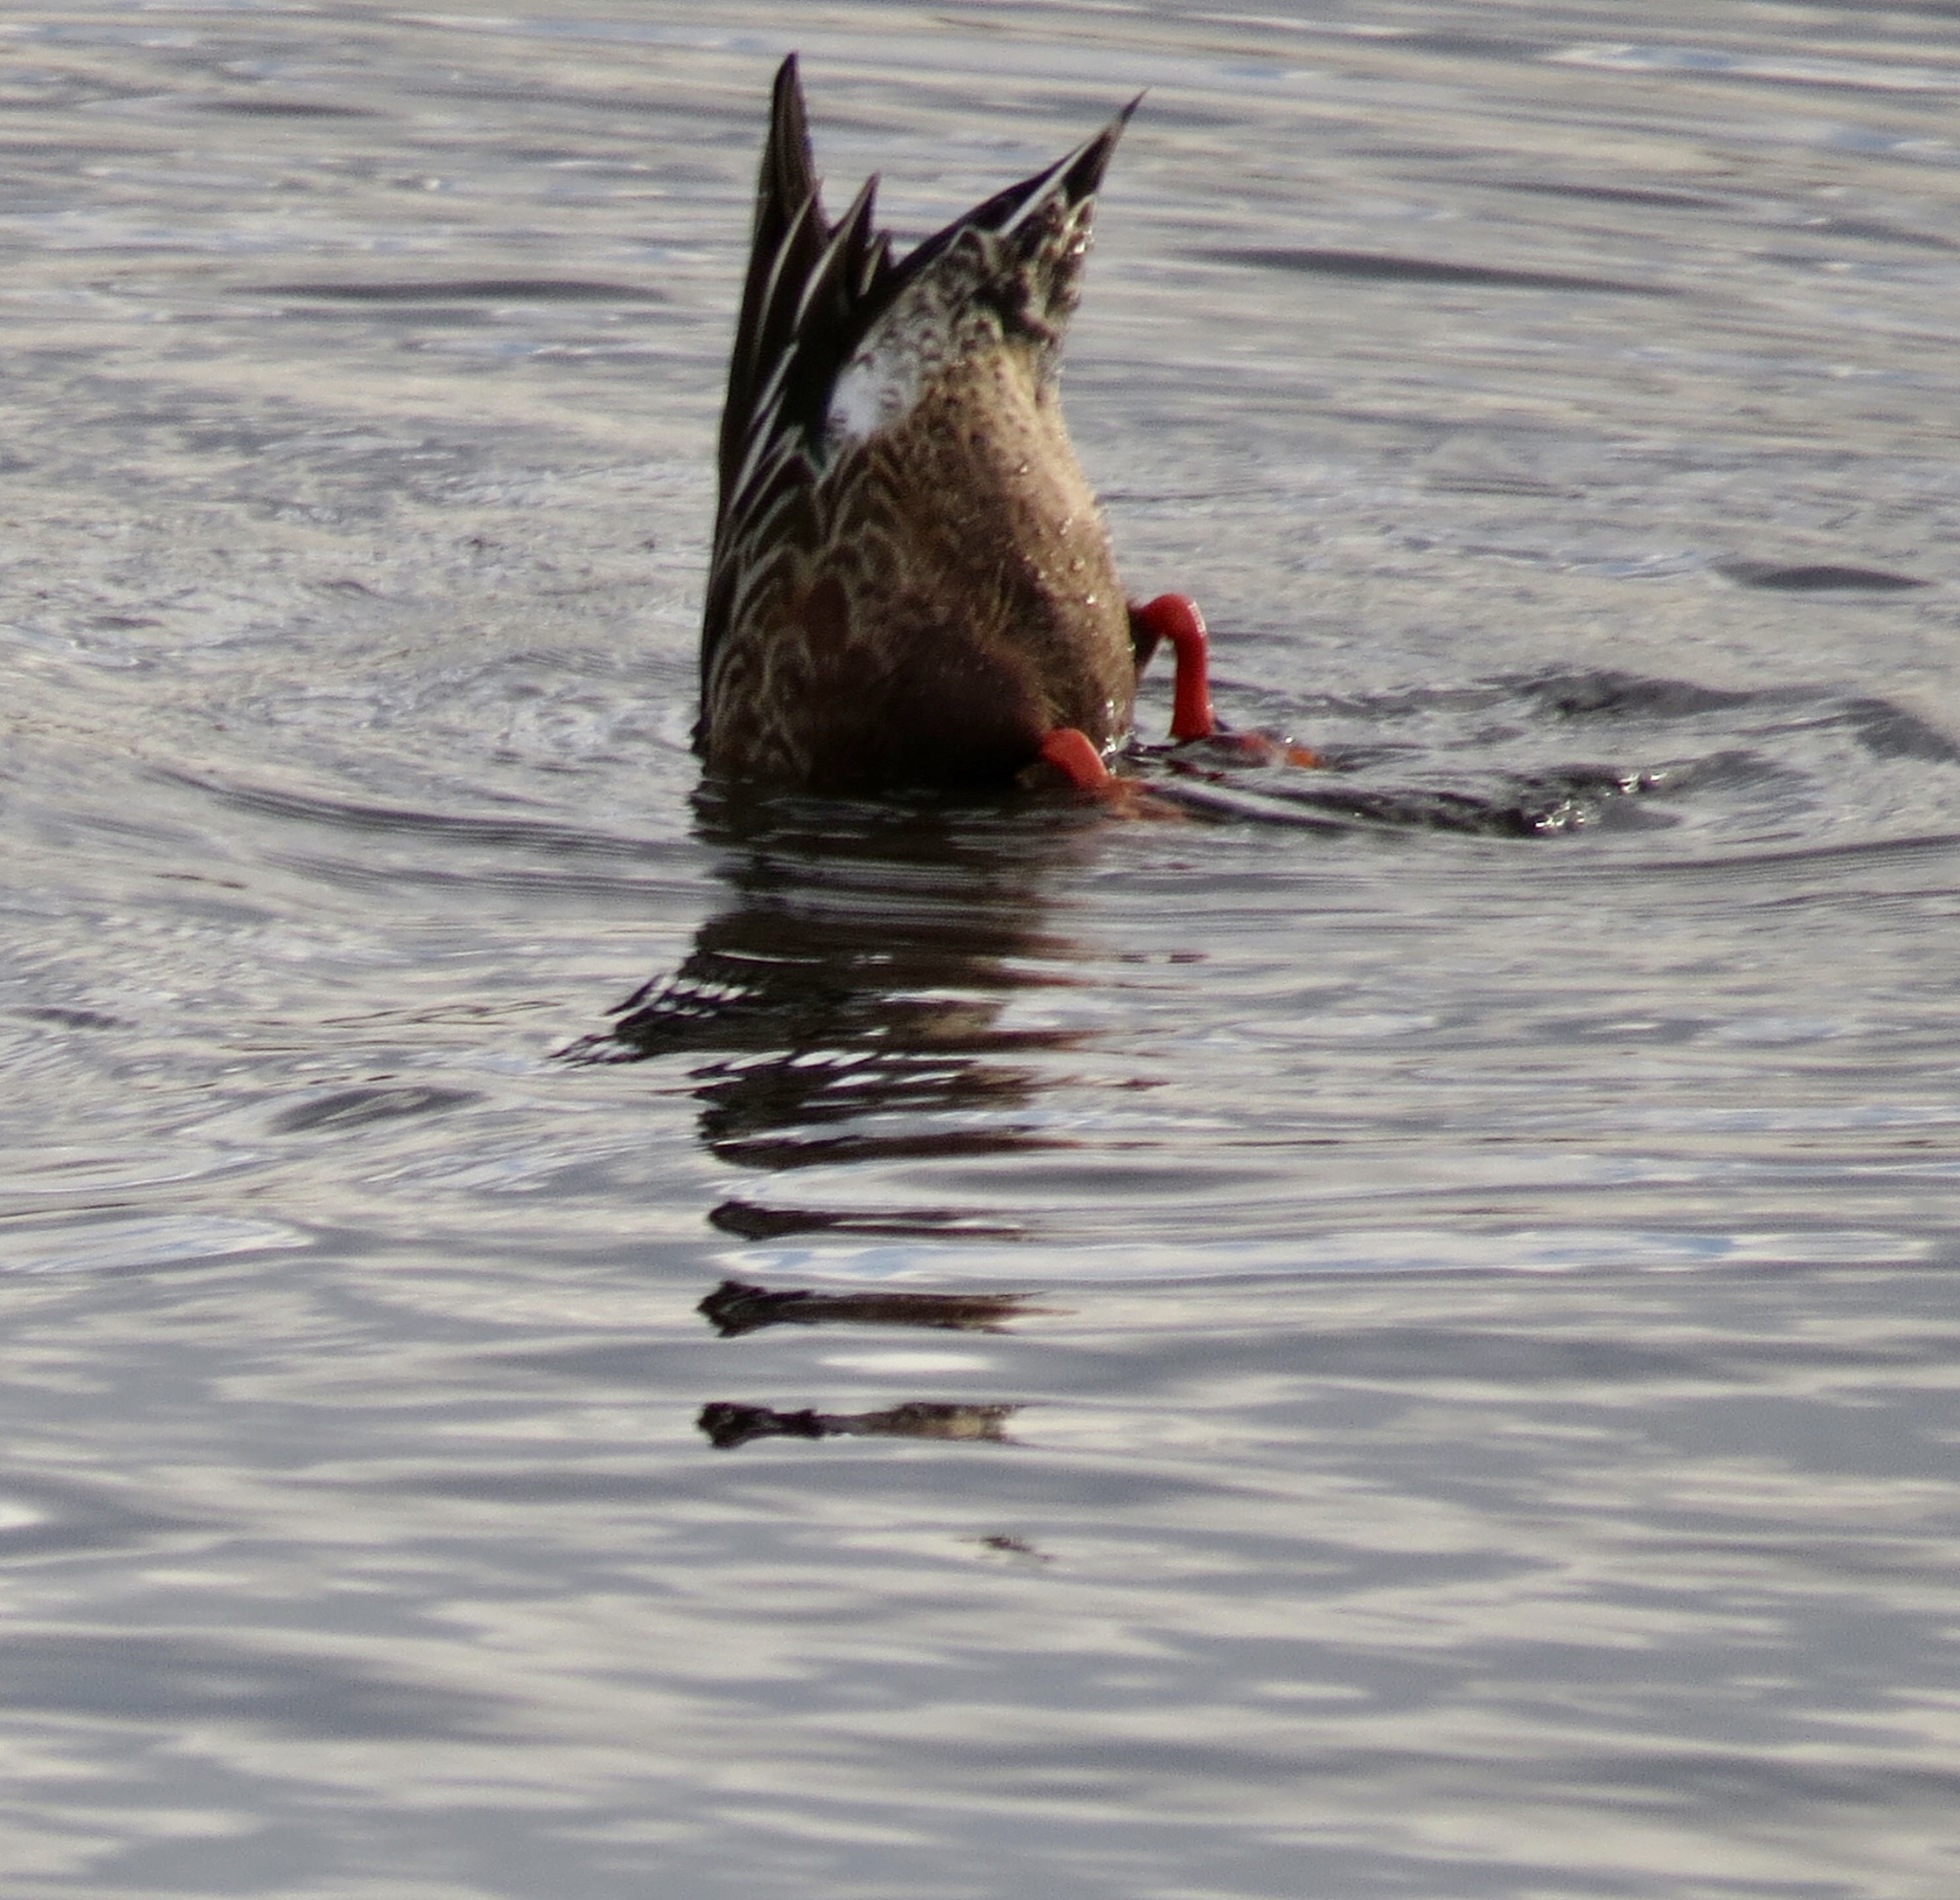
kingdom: Animalia
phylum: Chordata
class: Aves
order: Anseriformes
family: Anatidae
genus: Spatula
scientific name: Spatula clypeata
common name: Northern shoveler
